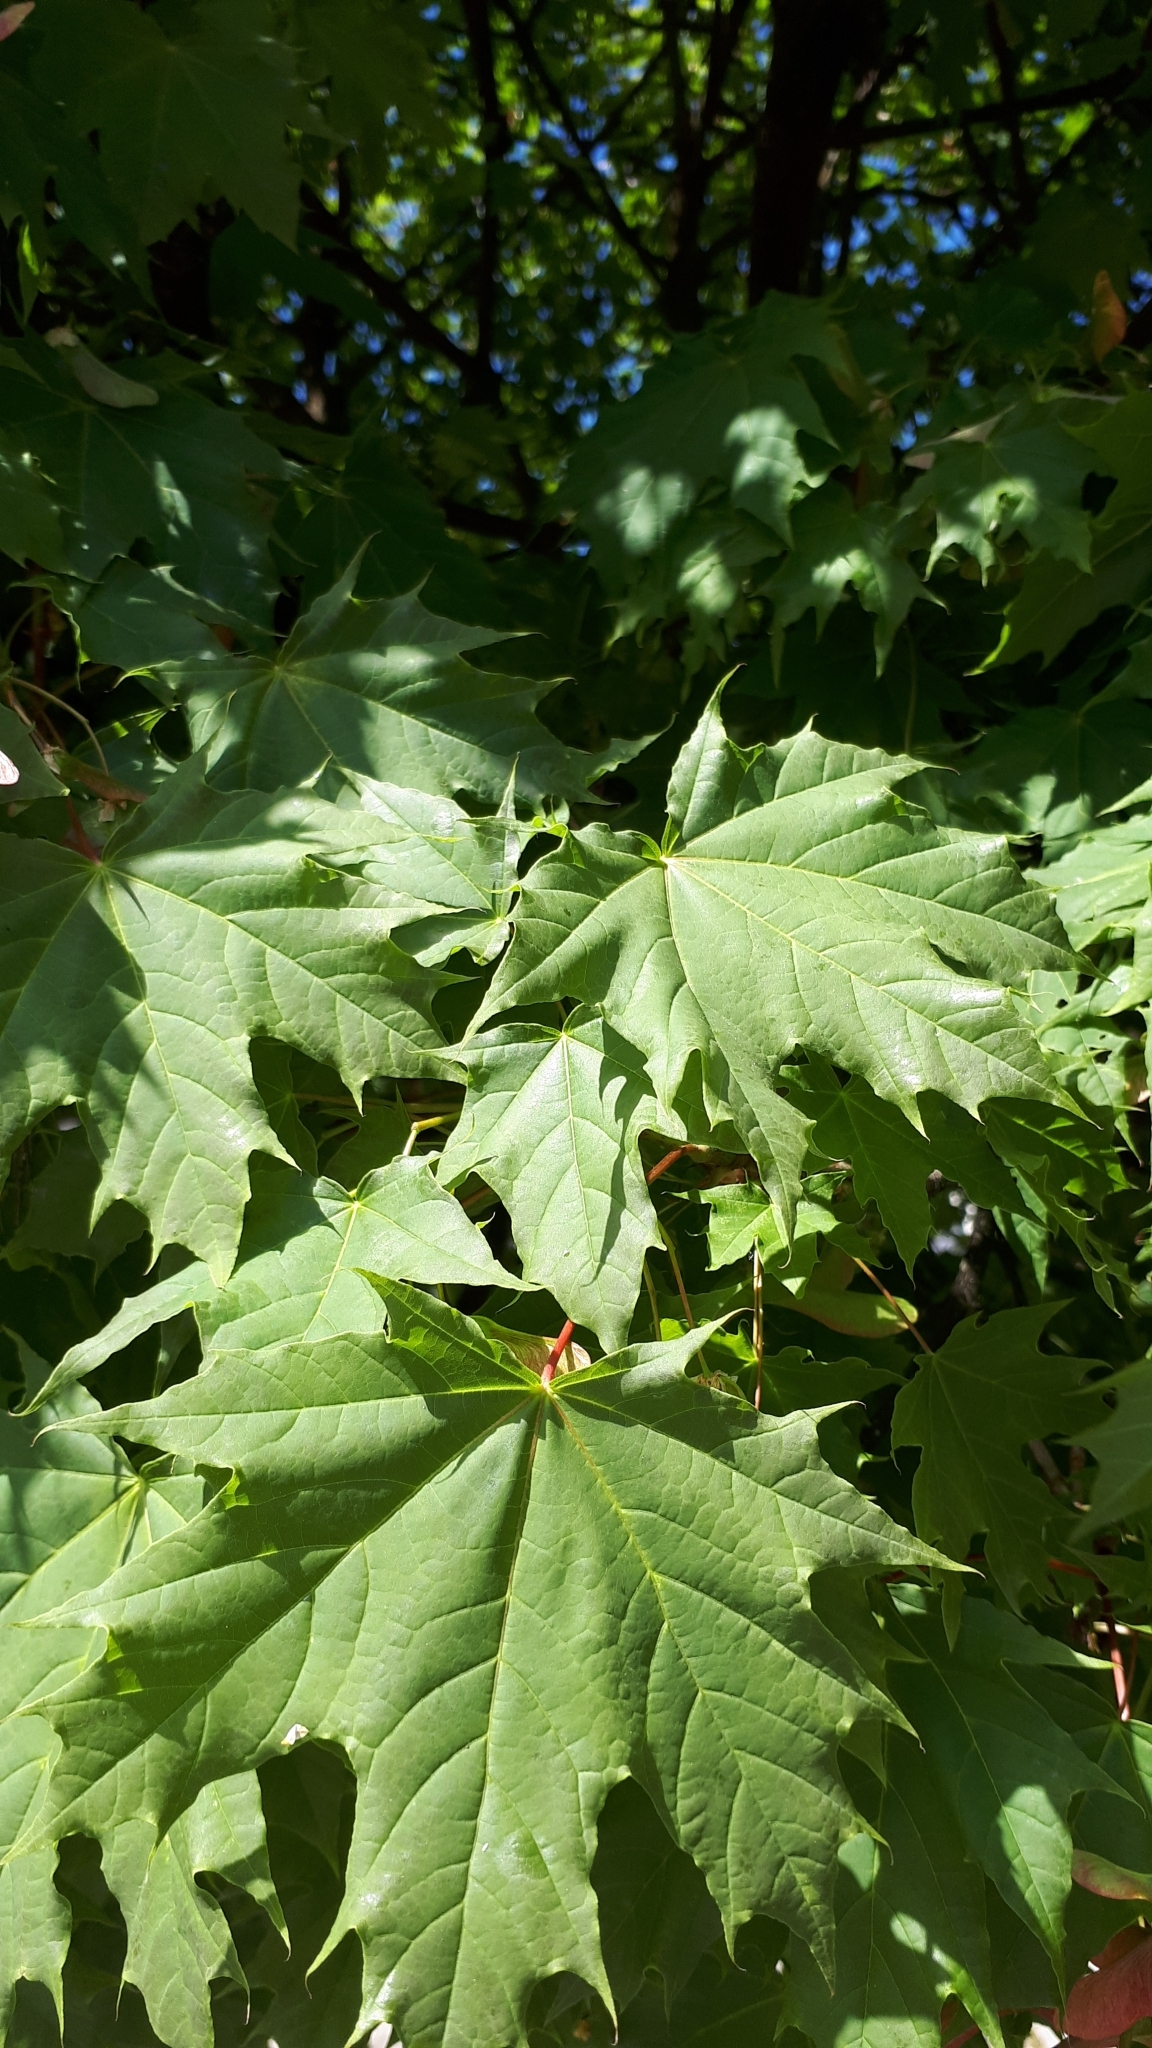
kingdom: Plantae
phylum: Tracheophyta
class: Magnoliopsida
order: Sapindales
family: Sapindaceae
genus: Acer
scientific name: Acer platanoides
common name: Norway maple
